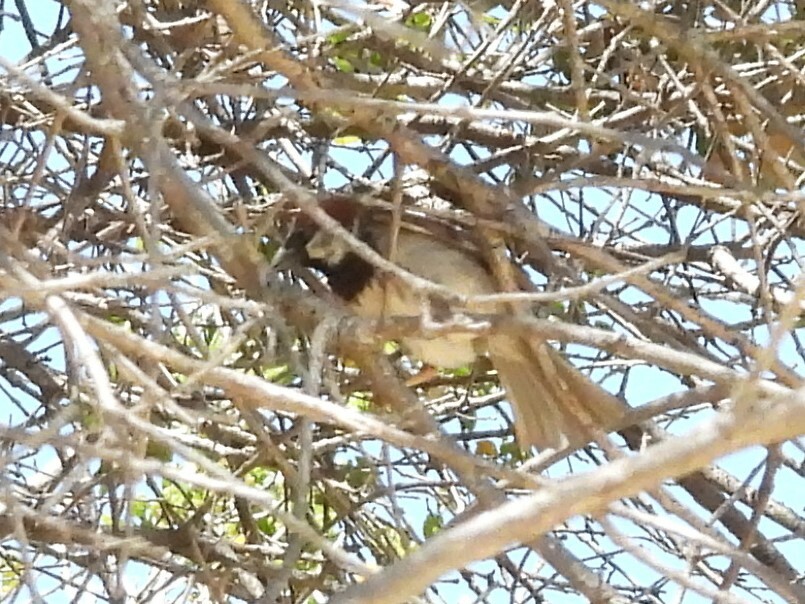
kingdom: Animalia
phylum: Chordata
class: Aves
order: Passeriformes
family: Passeridae
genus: Passer
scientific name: Passer domesticus
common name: House sparrow
